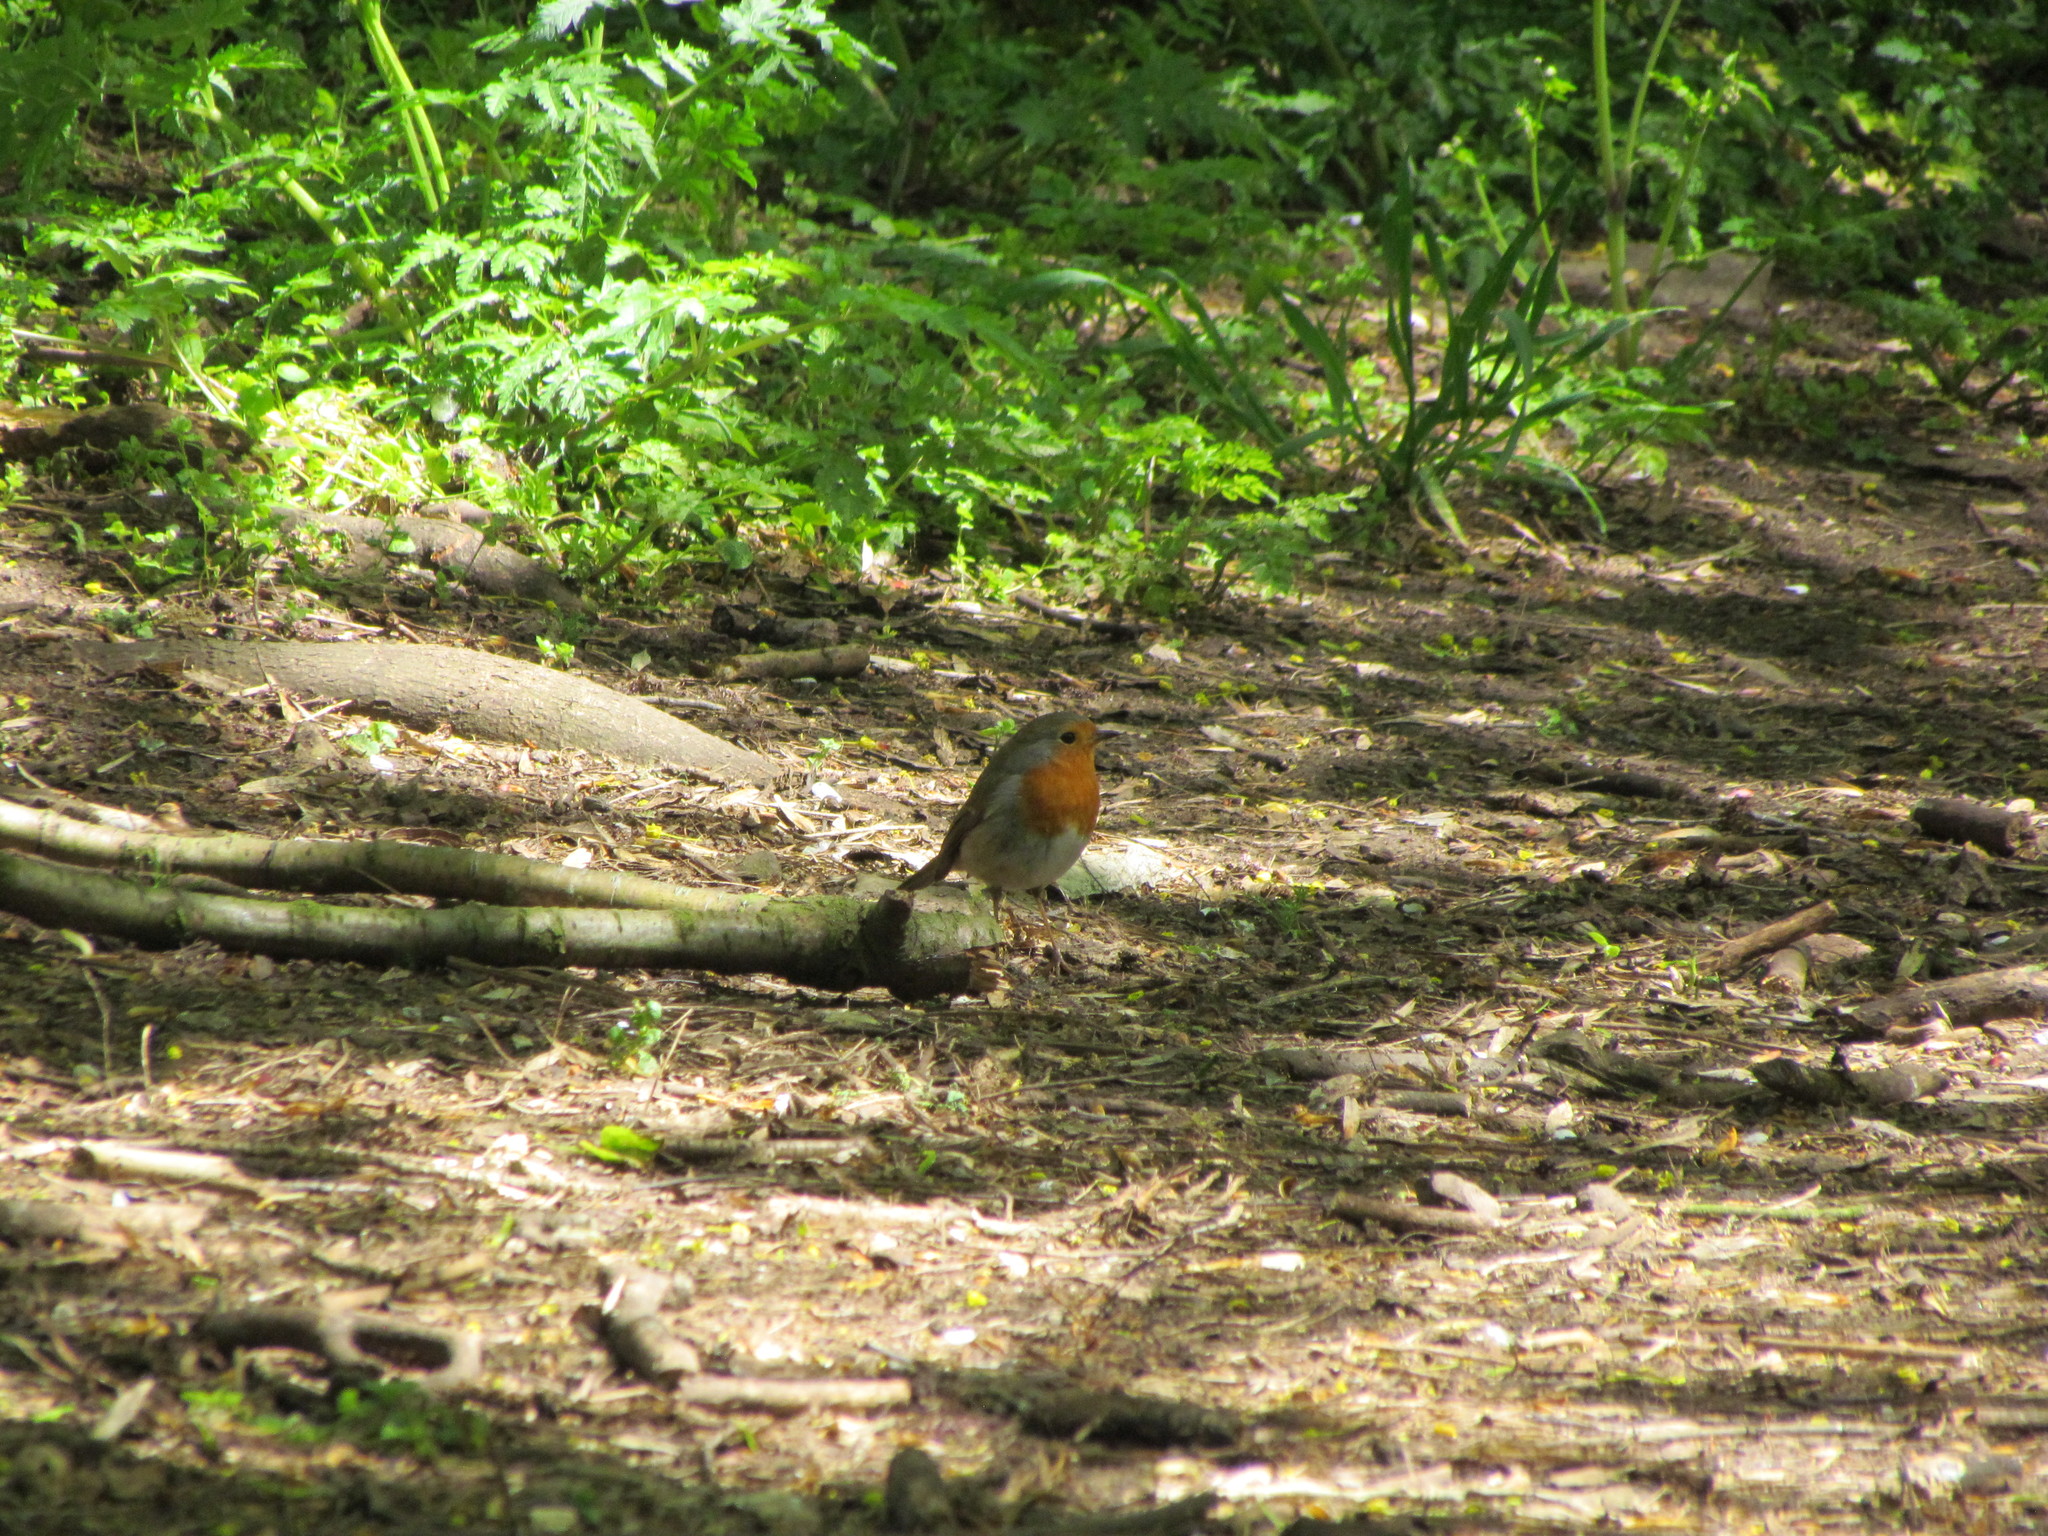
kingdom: Animalia
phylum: Chordata
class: Aves
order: Passeriformes
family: Muscicapidae
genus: Erithacus
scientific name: Erithacus rubecula
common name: European robin
